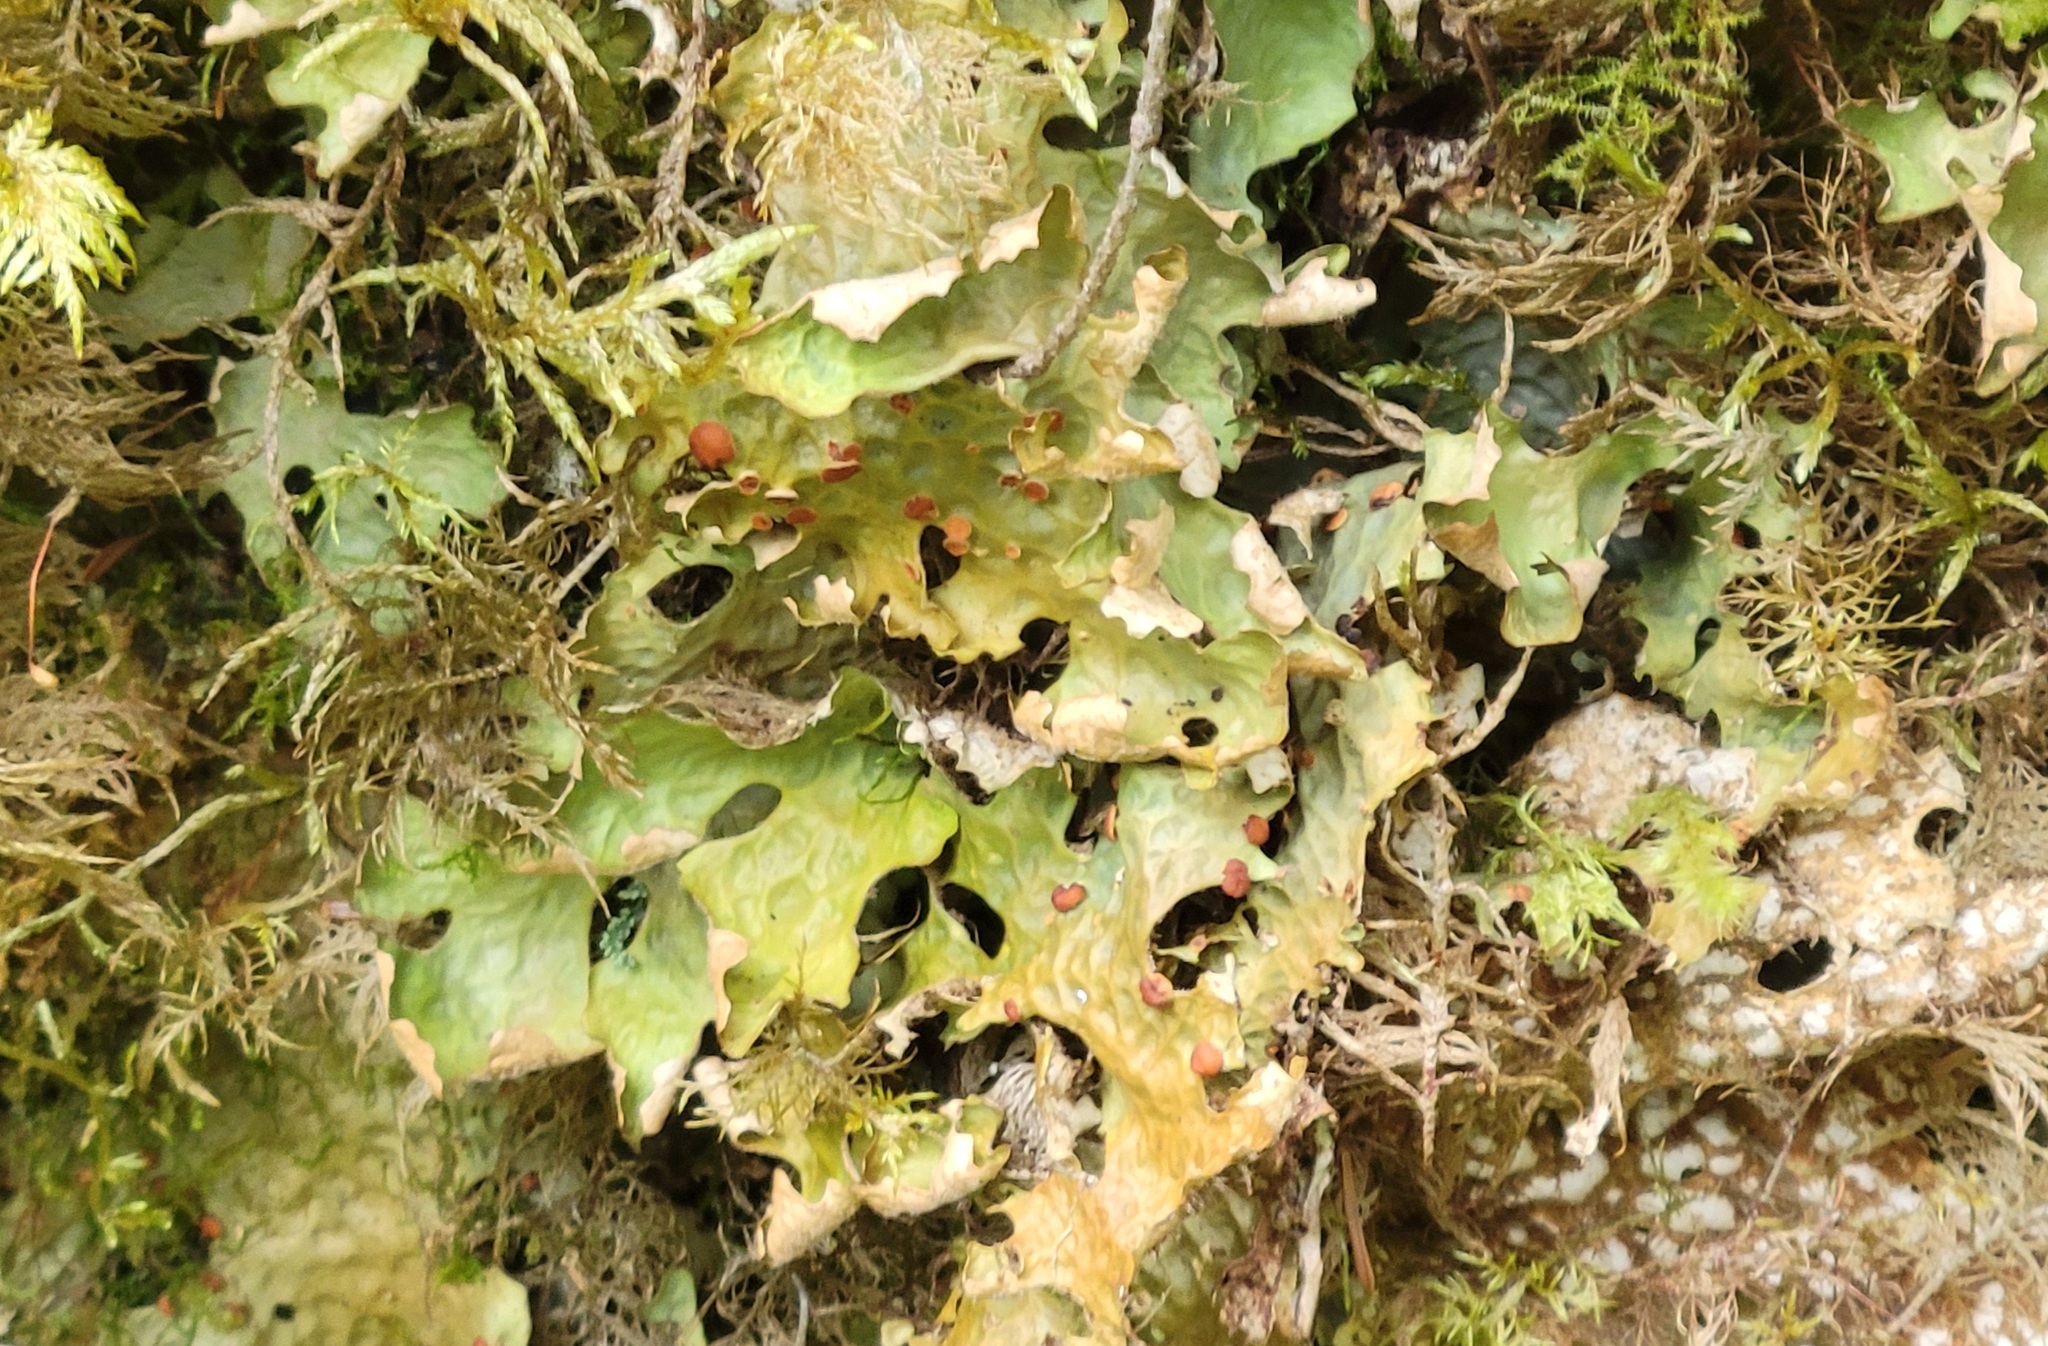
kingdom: Fungi
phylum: Ascomycota
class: Lecanoromycetes
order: Peltigerales
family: Lobariaceae
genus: Lobaria
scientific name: Lobaria linita
